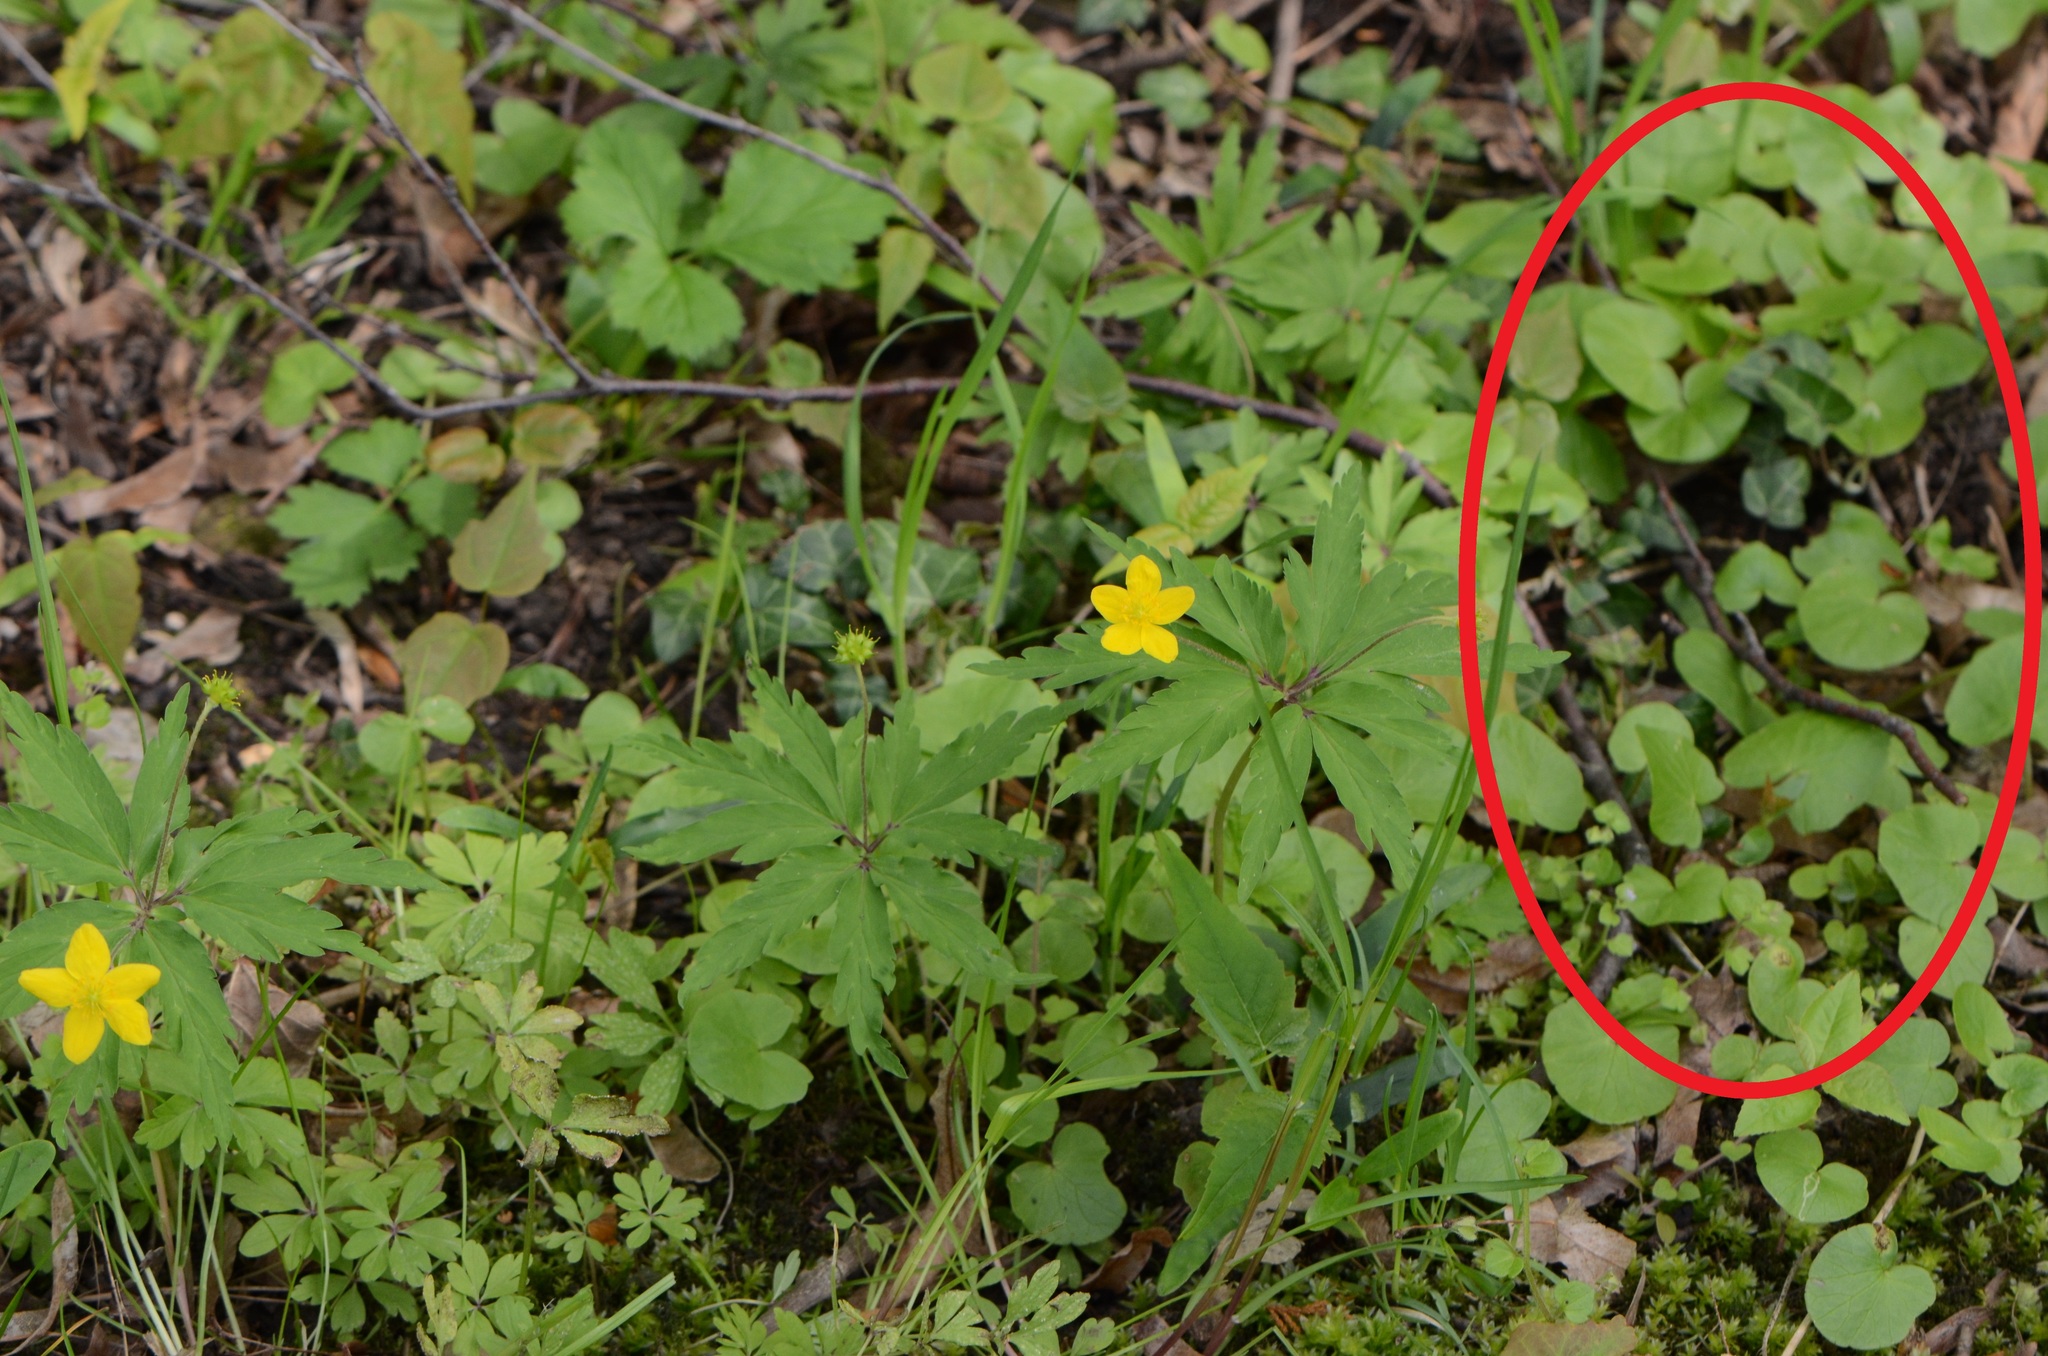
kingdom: Plantae
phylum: Tracheophyta
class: Magnoliopsida
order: Ranunculales
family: Ranunculaceae
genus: Ficaria
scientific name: Ficaria verna
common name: Lesser celandine
